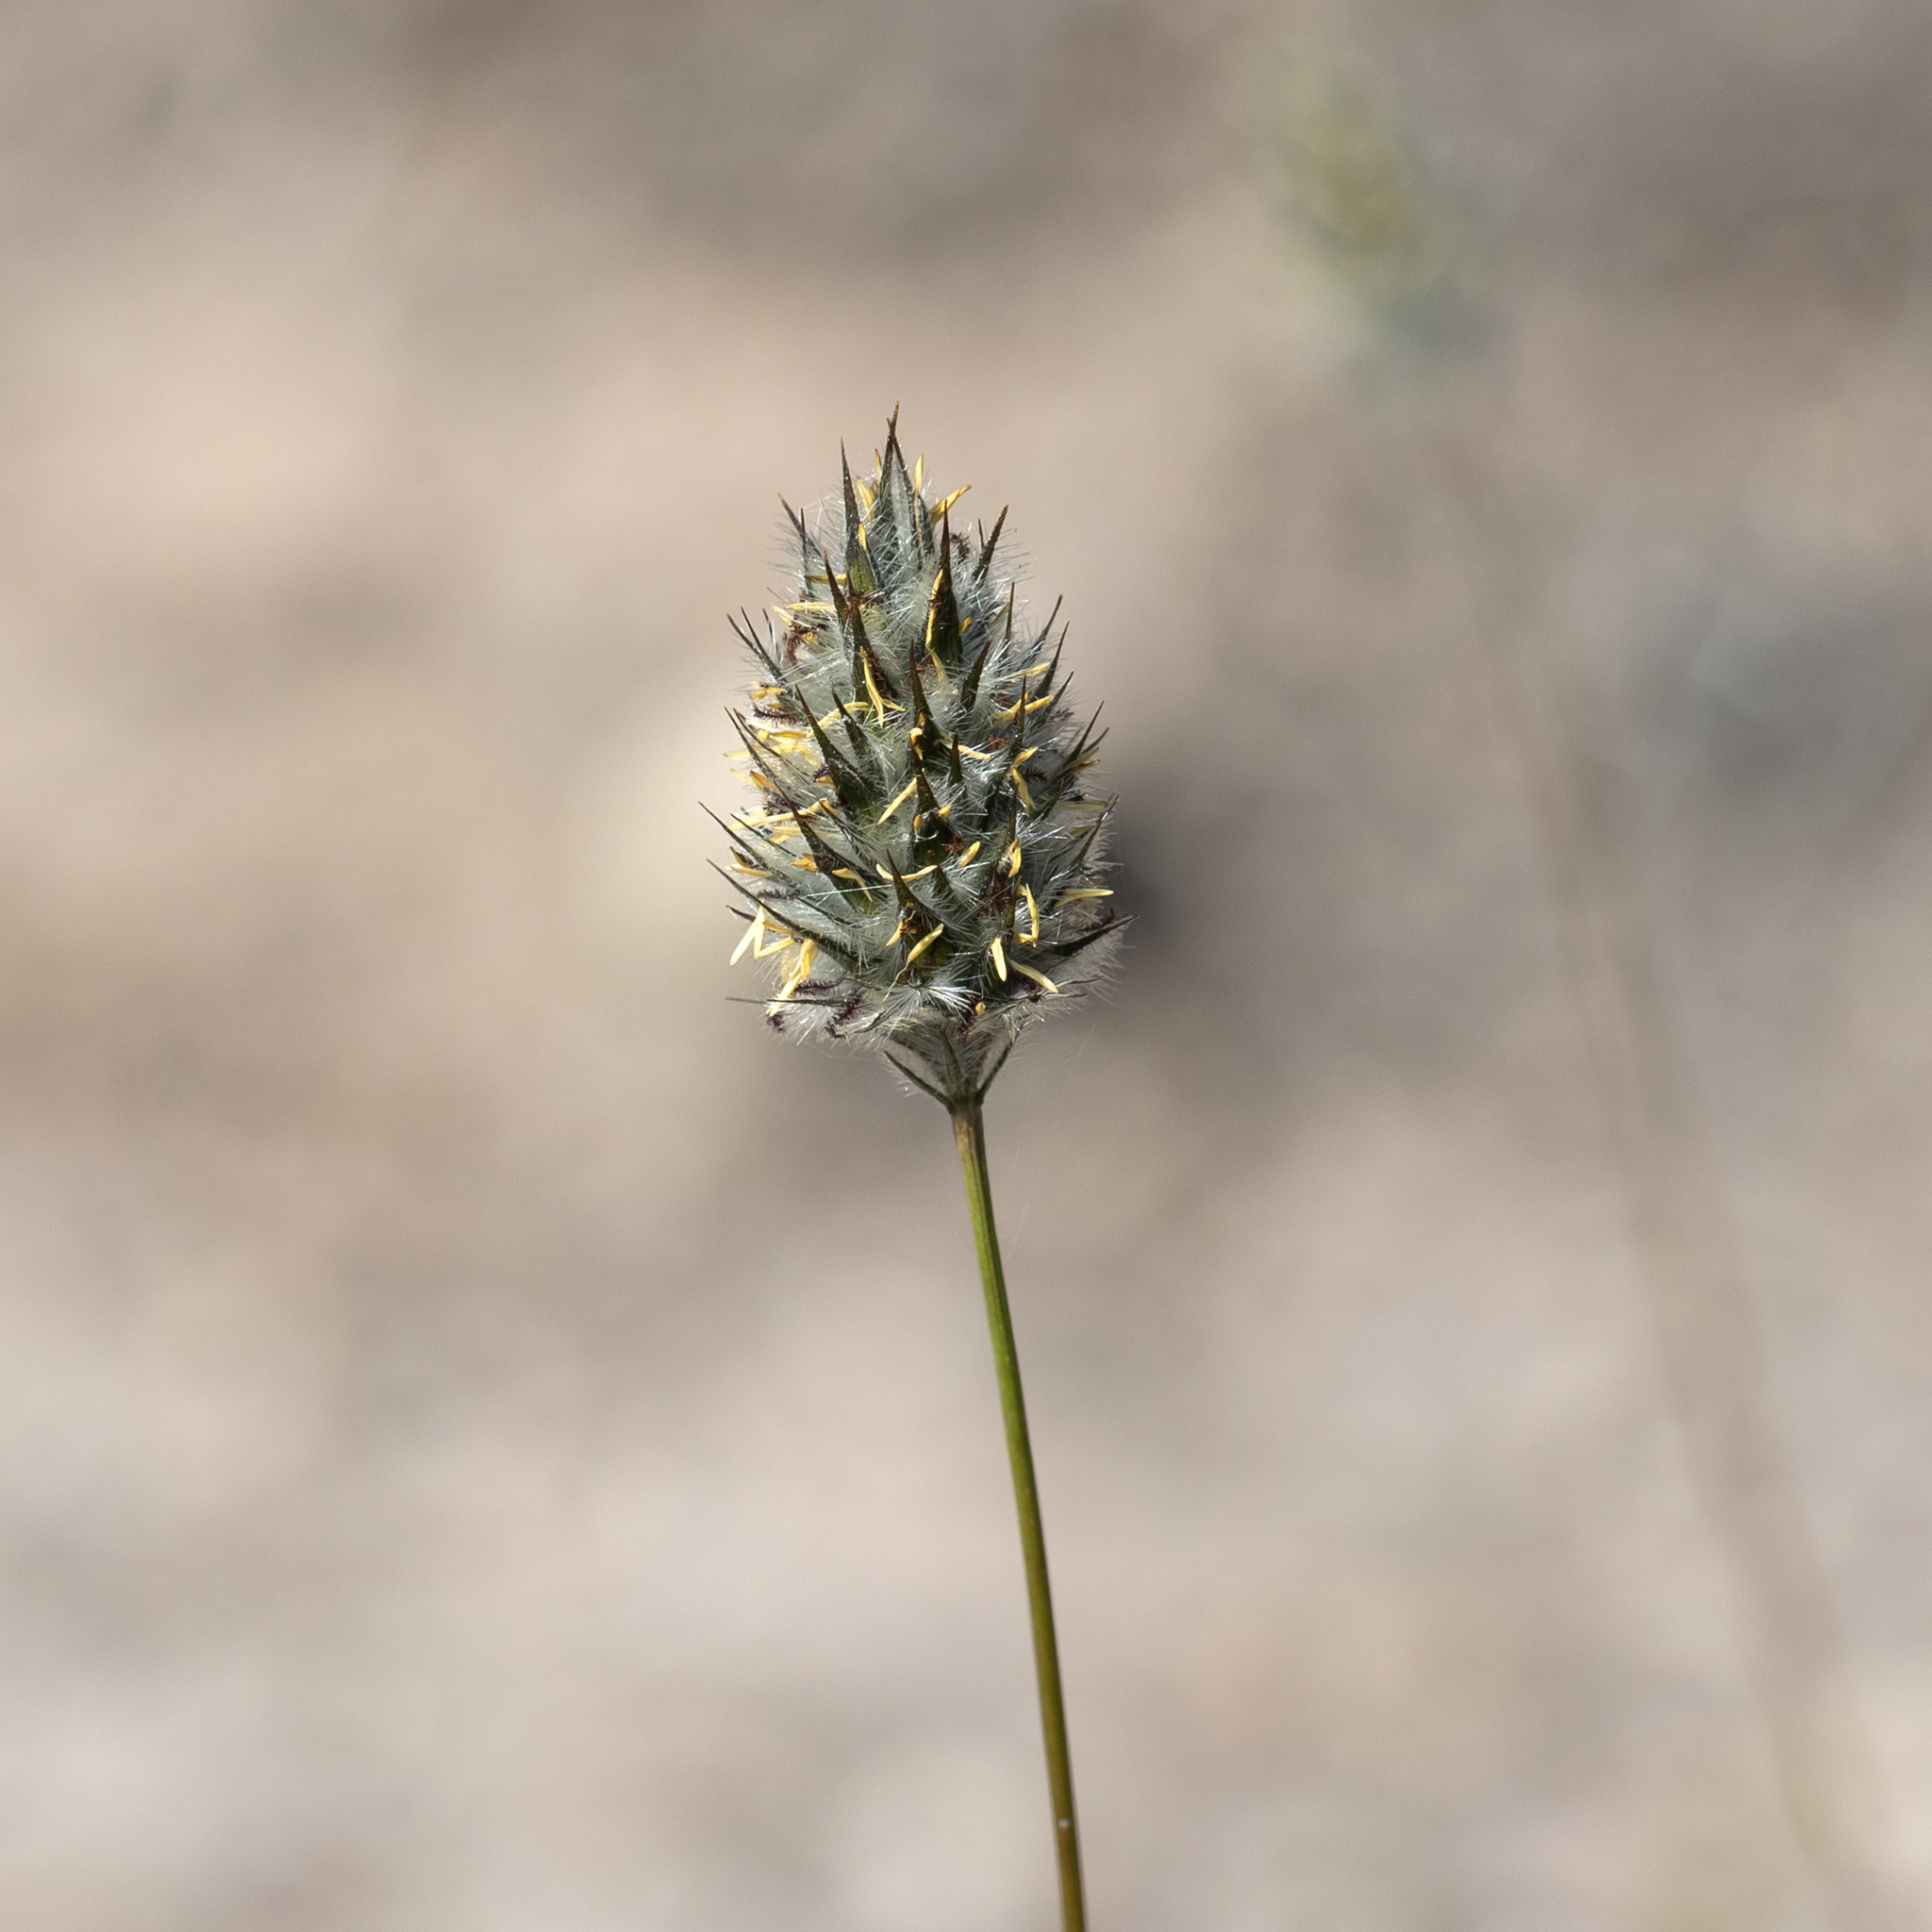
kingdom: Plantae
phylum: Tracheophyta
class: Liliopsida
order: Poales
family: Poaceae
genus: Neurachne
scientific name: Neurachne alopecuroidea
